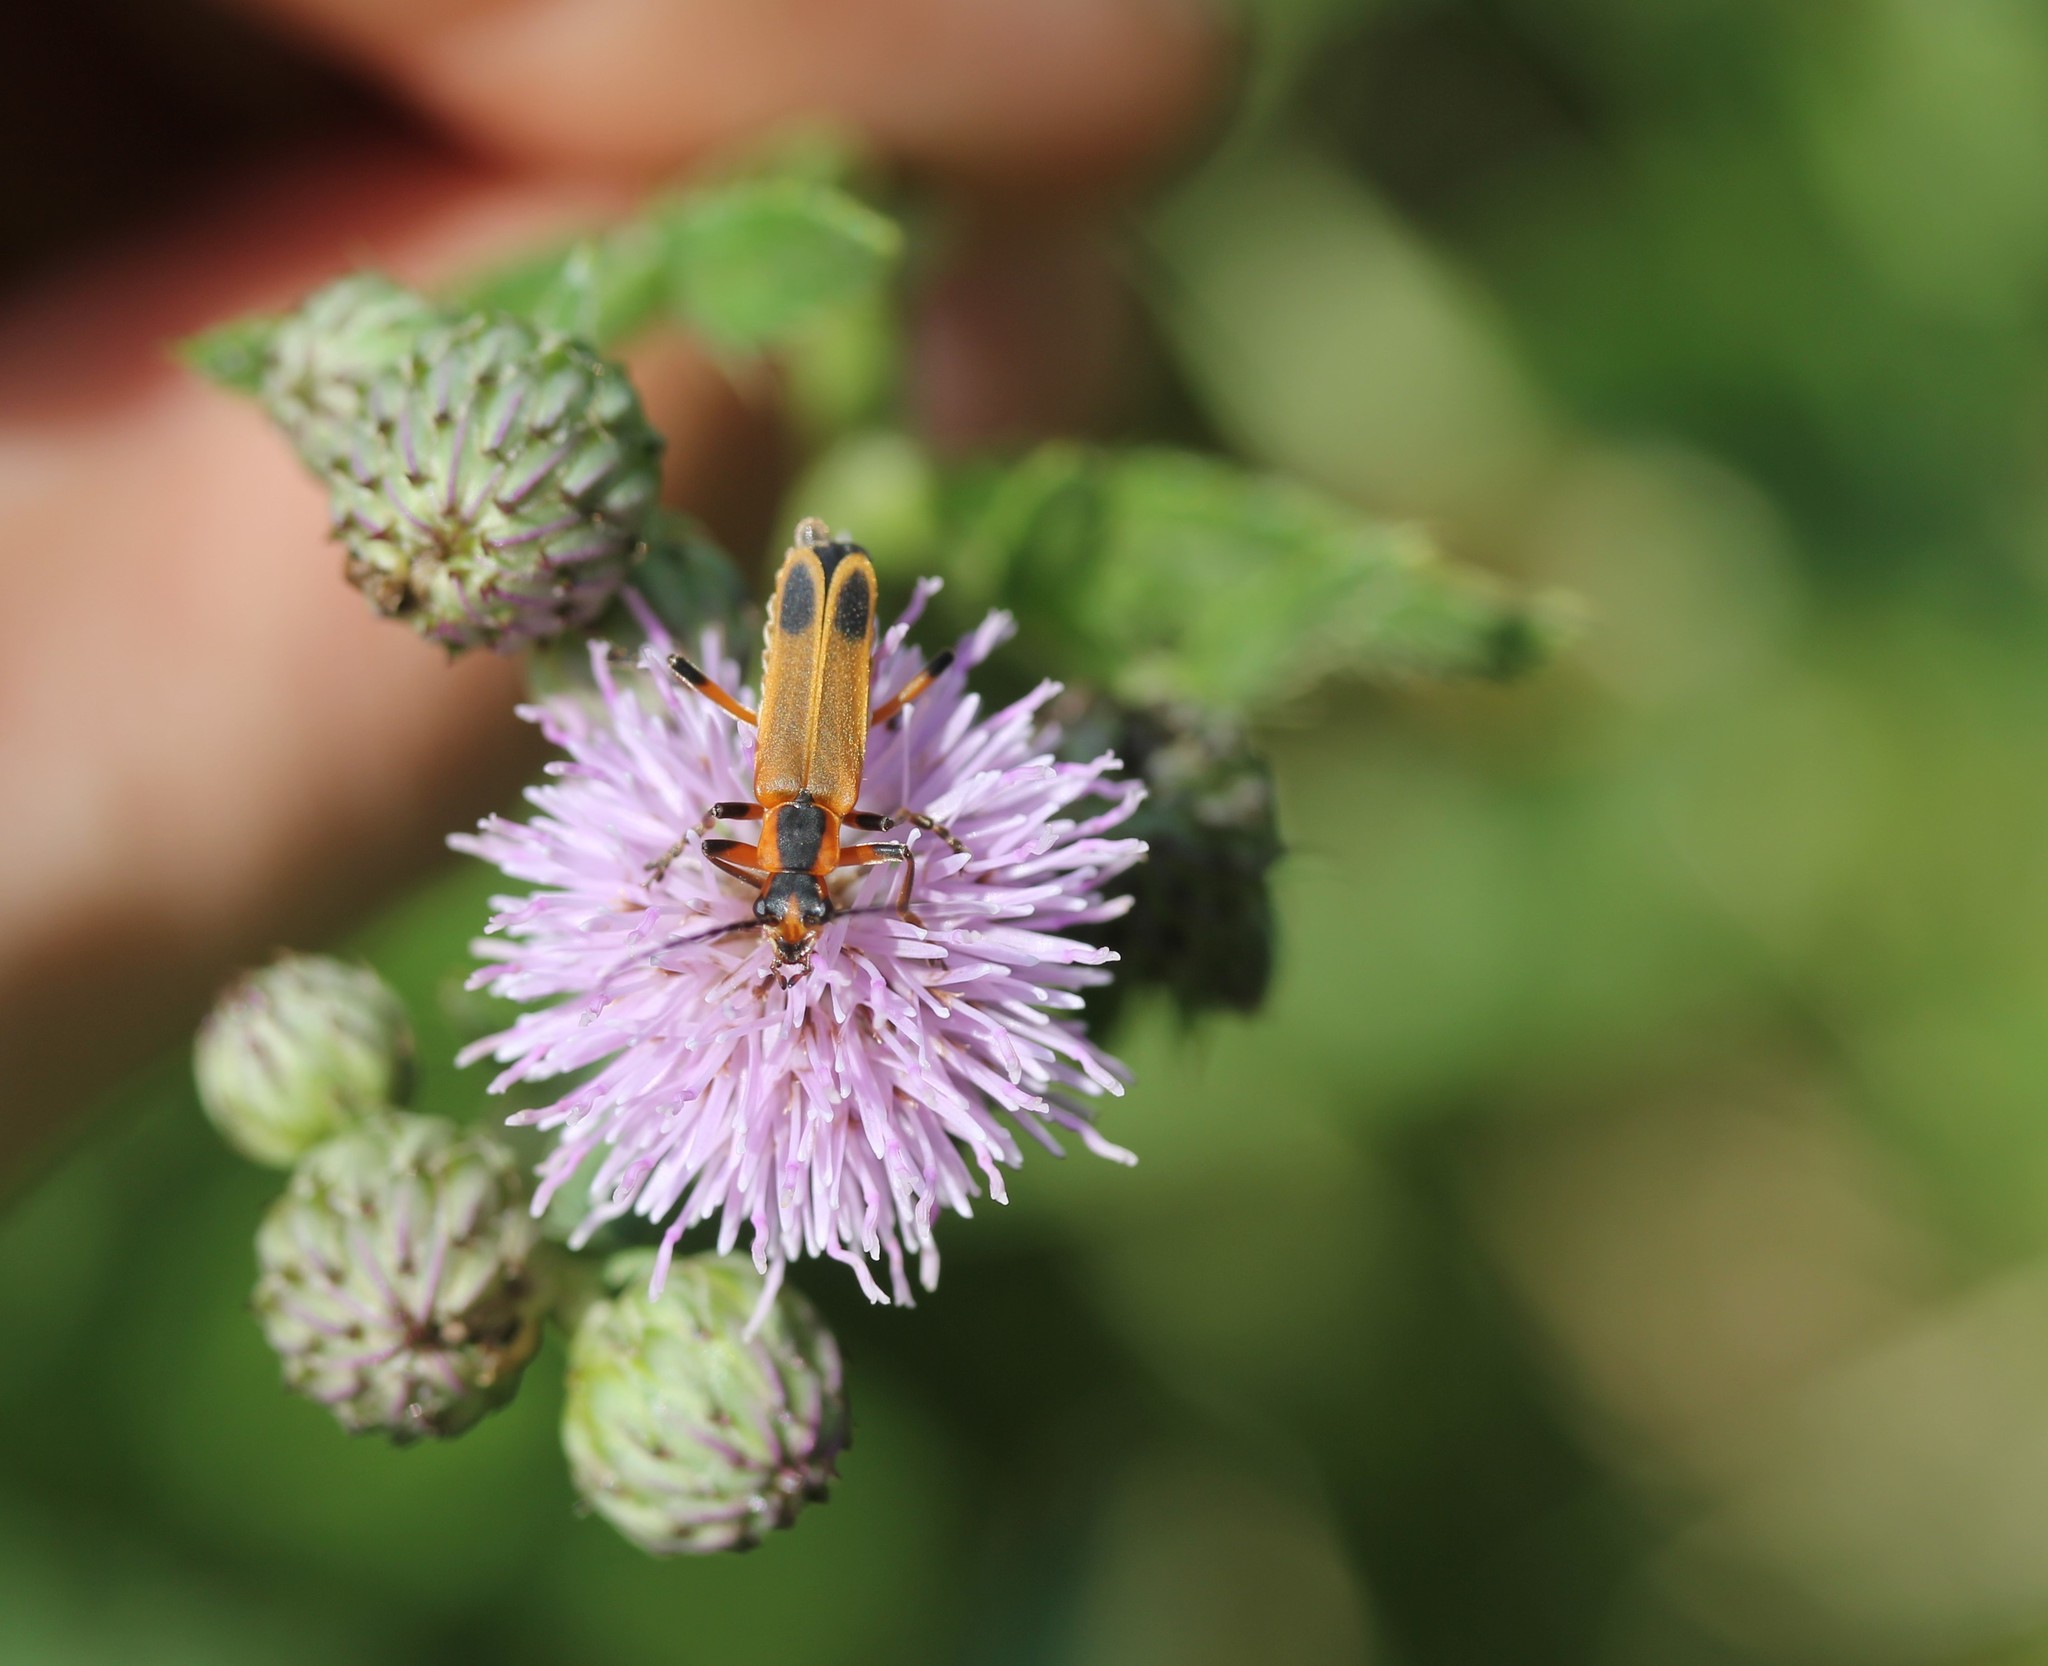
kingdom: Plantae
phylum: Tracheophyta
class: Magnoliopsida
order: Asterales
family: Asteraceae
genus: Cirsium
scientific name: Cirsium arvense
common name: Creeping thistle
